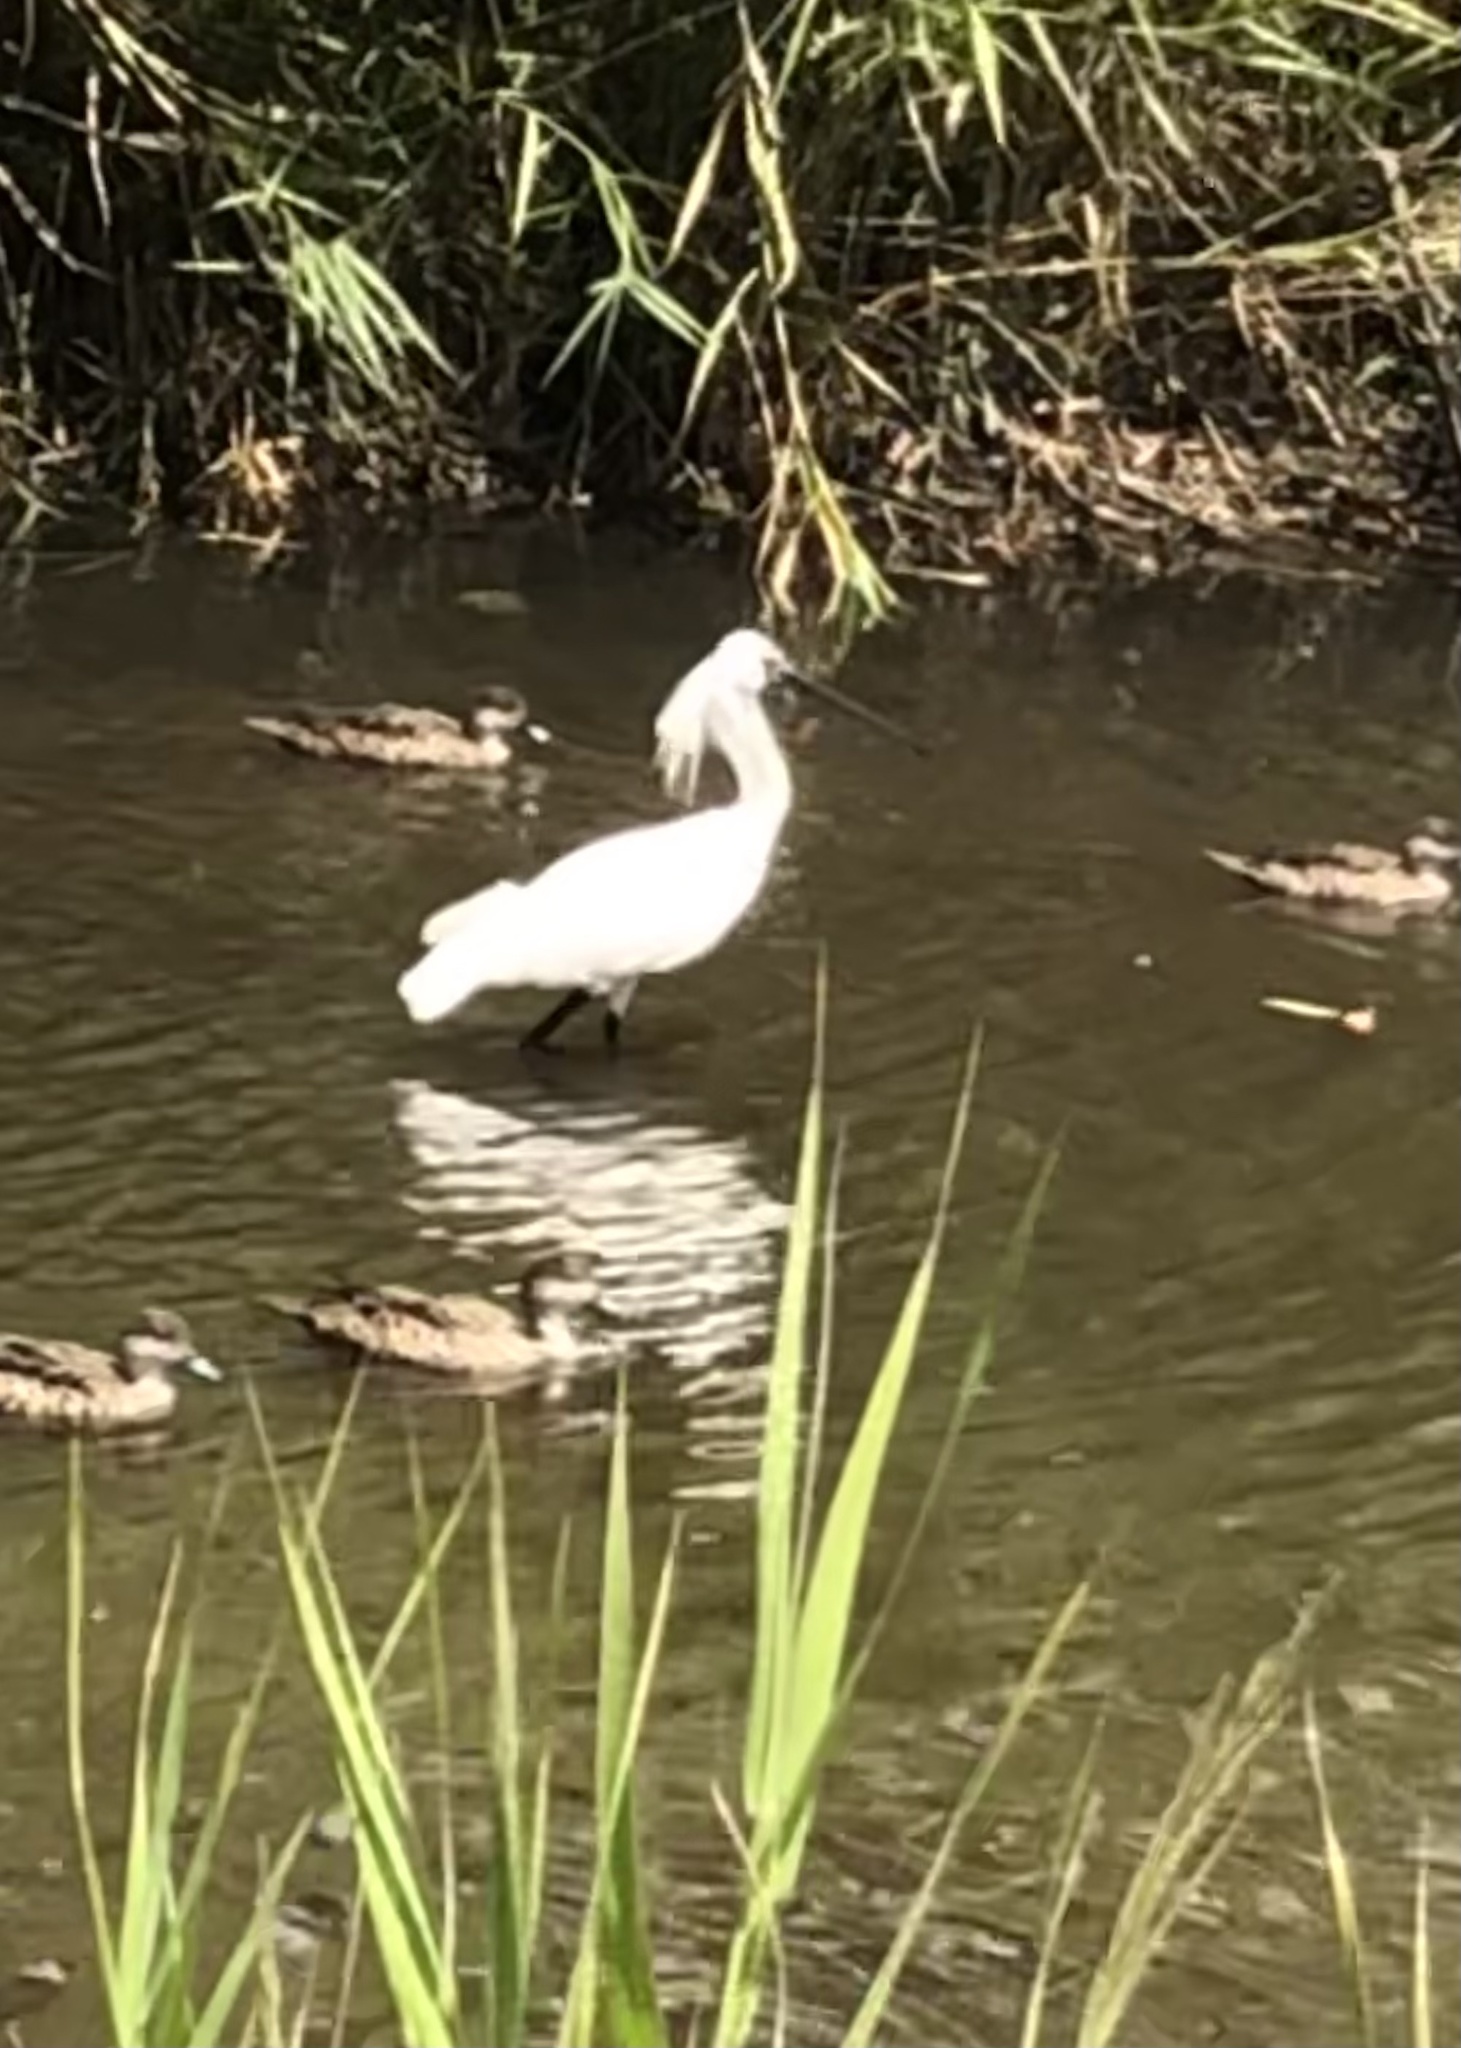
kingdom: Animalia
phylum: Chordata
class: Aves
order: Pelecaniformes
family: Threskiornithidae
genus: Platalea
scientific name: Platalea regia
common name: Royal spoonbill
